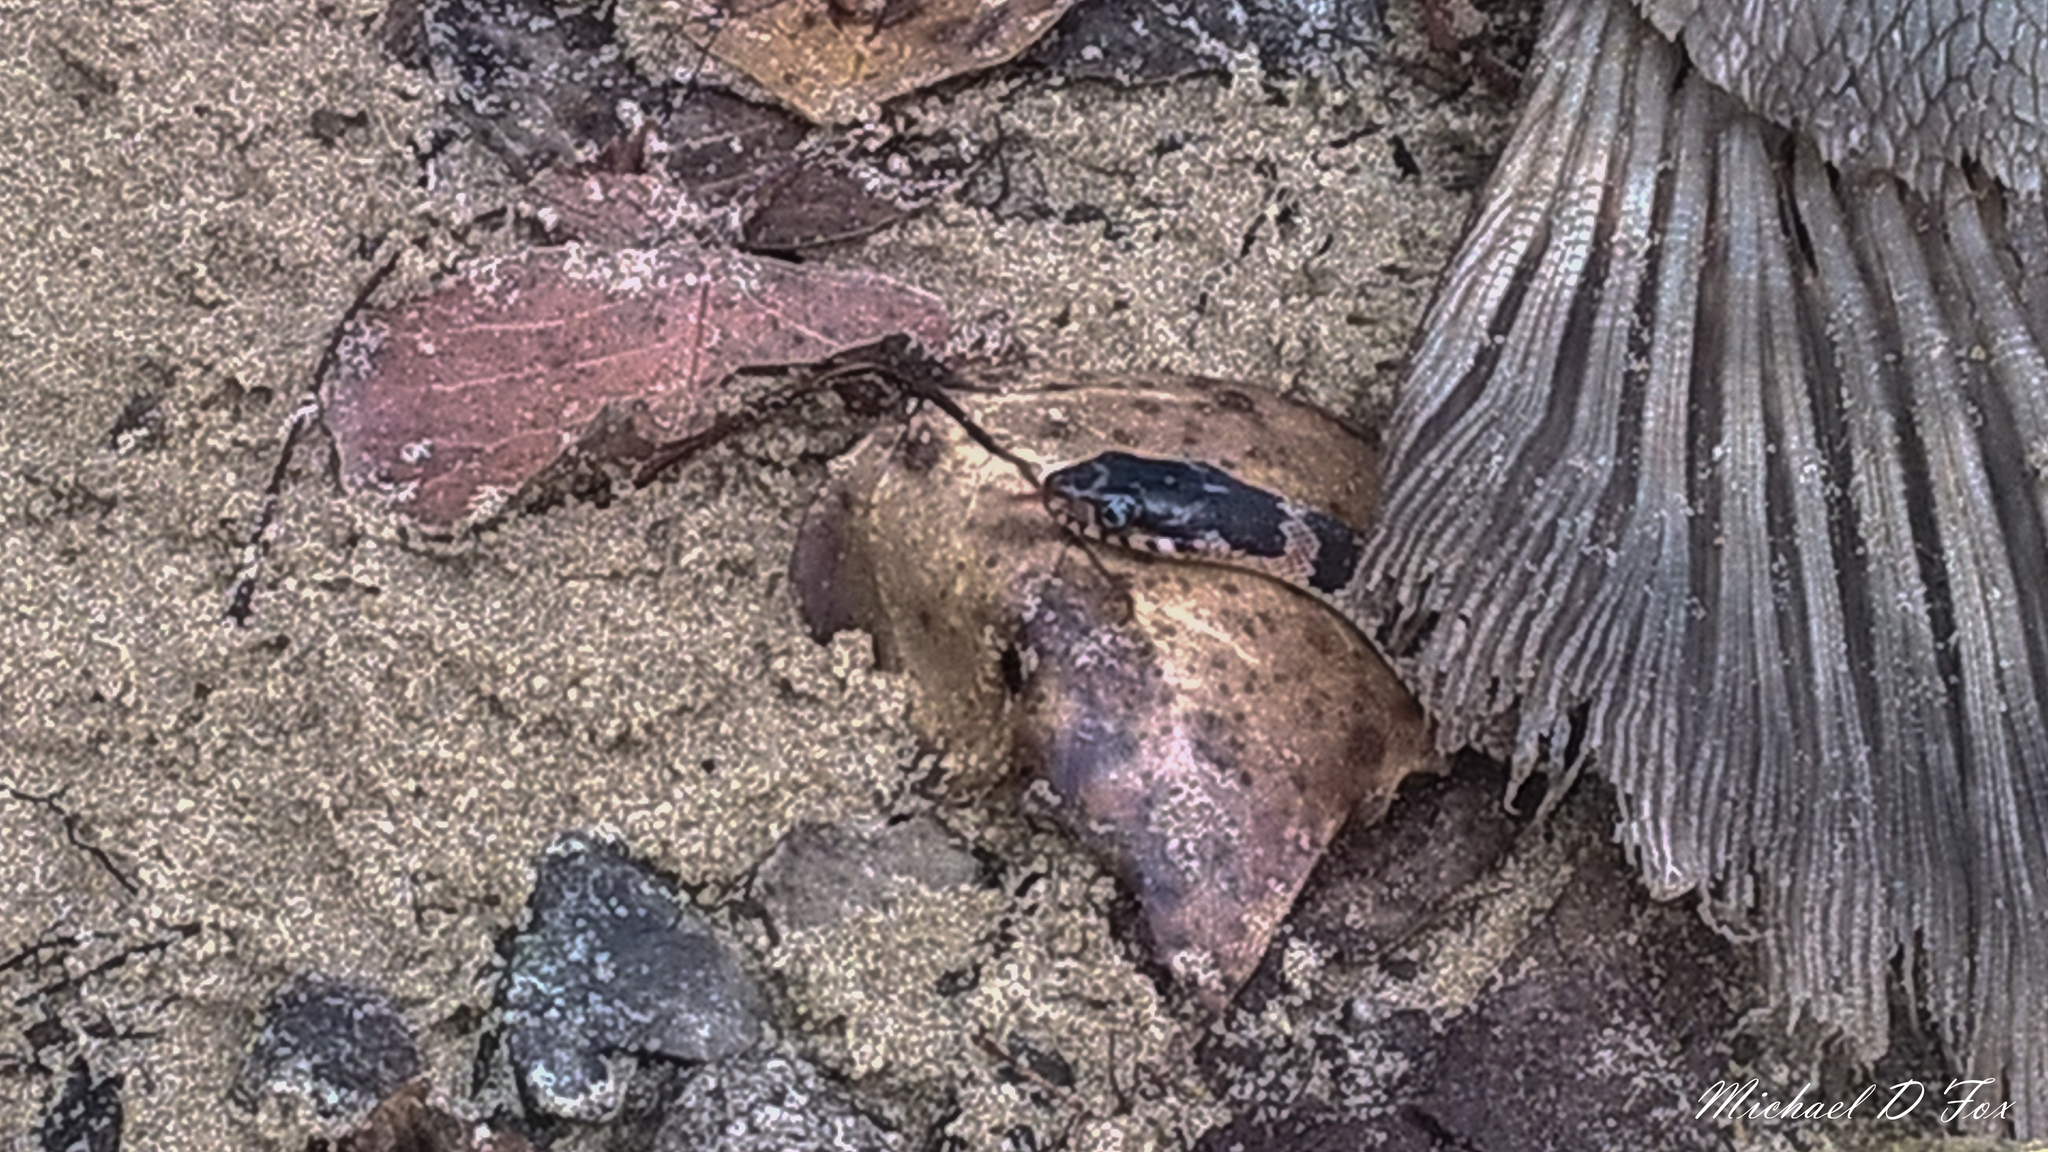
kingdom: Animalia
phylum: Chordata
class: Squamata
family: Colubridae
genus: Nerodia
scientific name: Nerodia erythrogaster
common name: Plainbelly water snake
